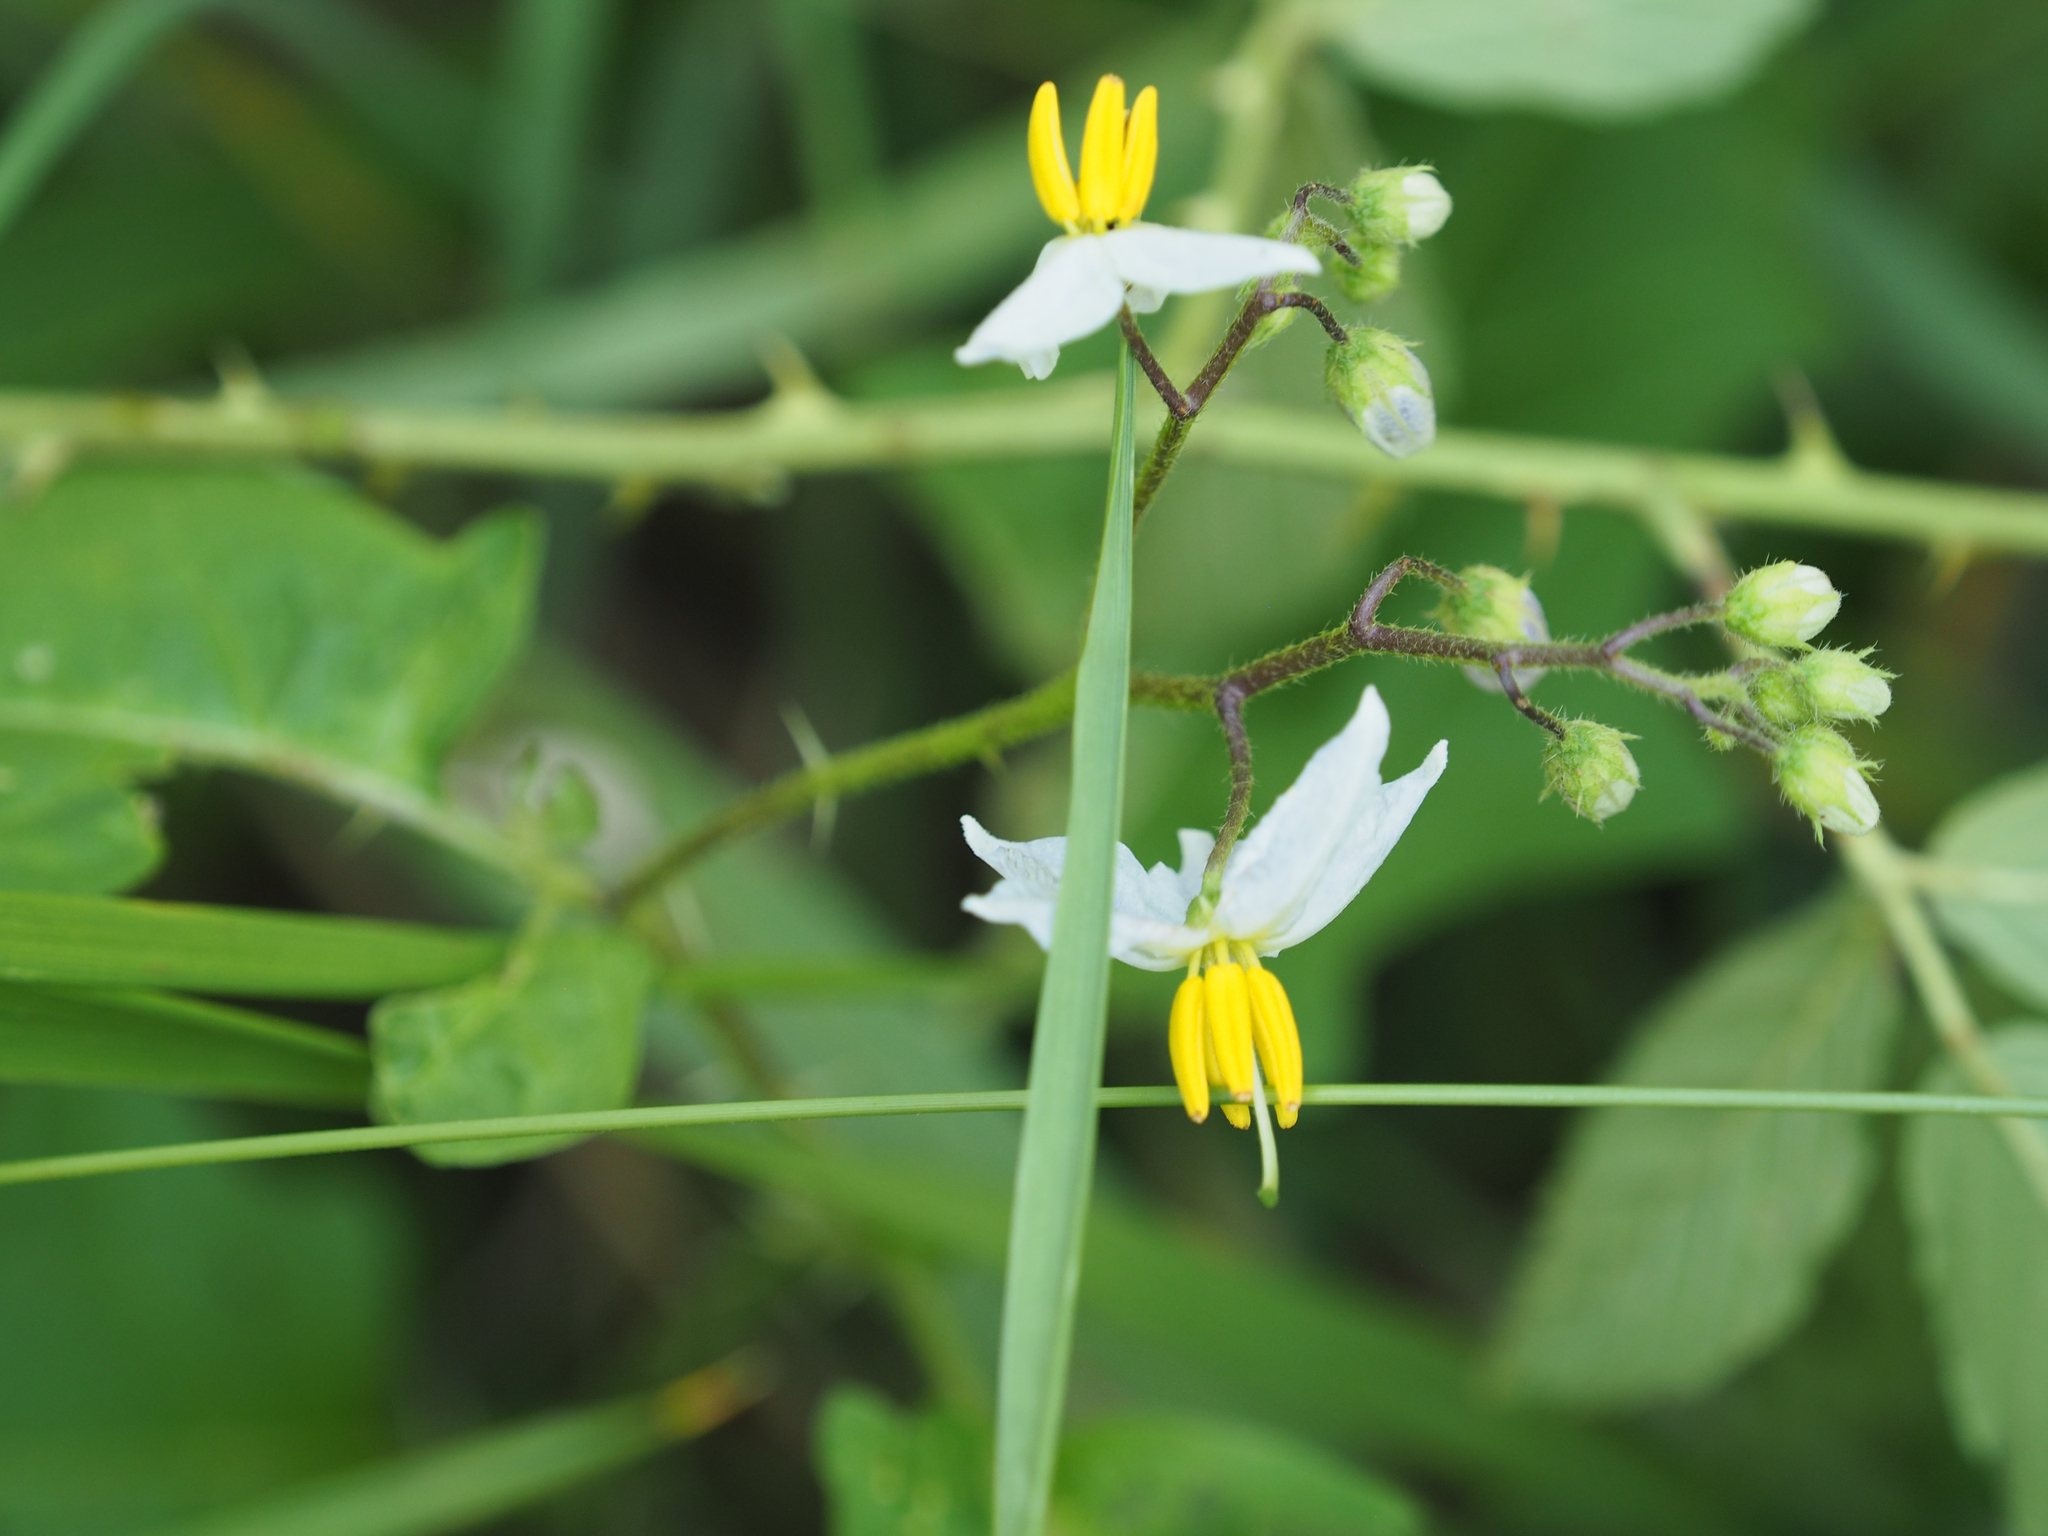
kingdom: Plantae
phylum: Tracheophyta
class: Magnoliopsida
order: Solanales
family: Solanaceae
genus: Solanum
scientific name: Solanum carolinense
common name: Horse-nettle
